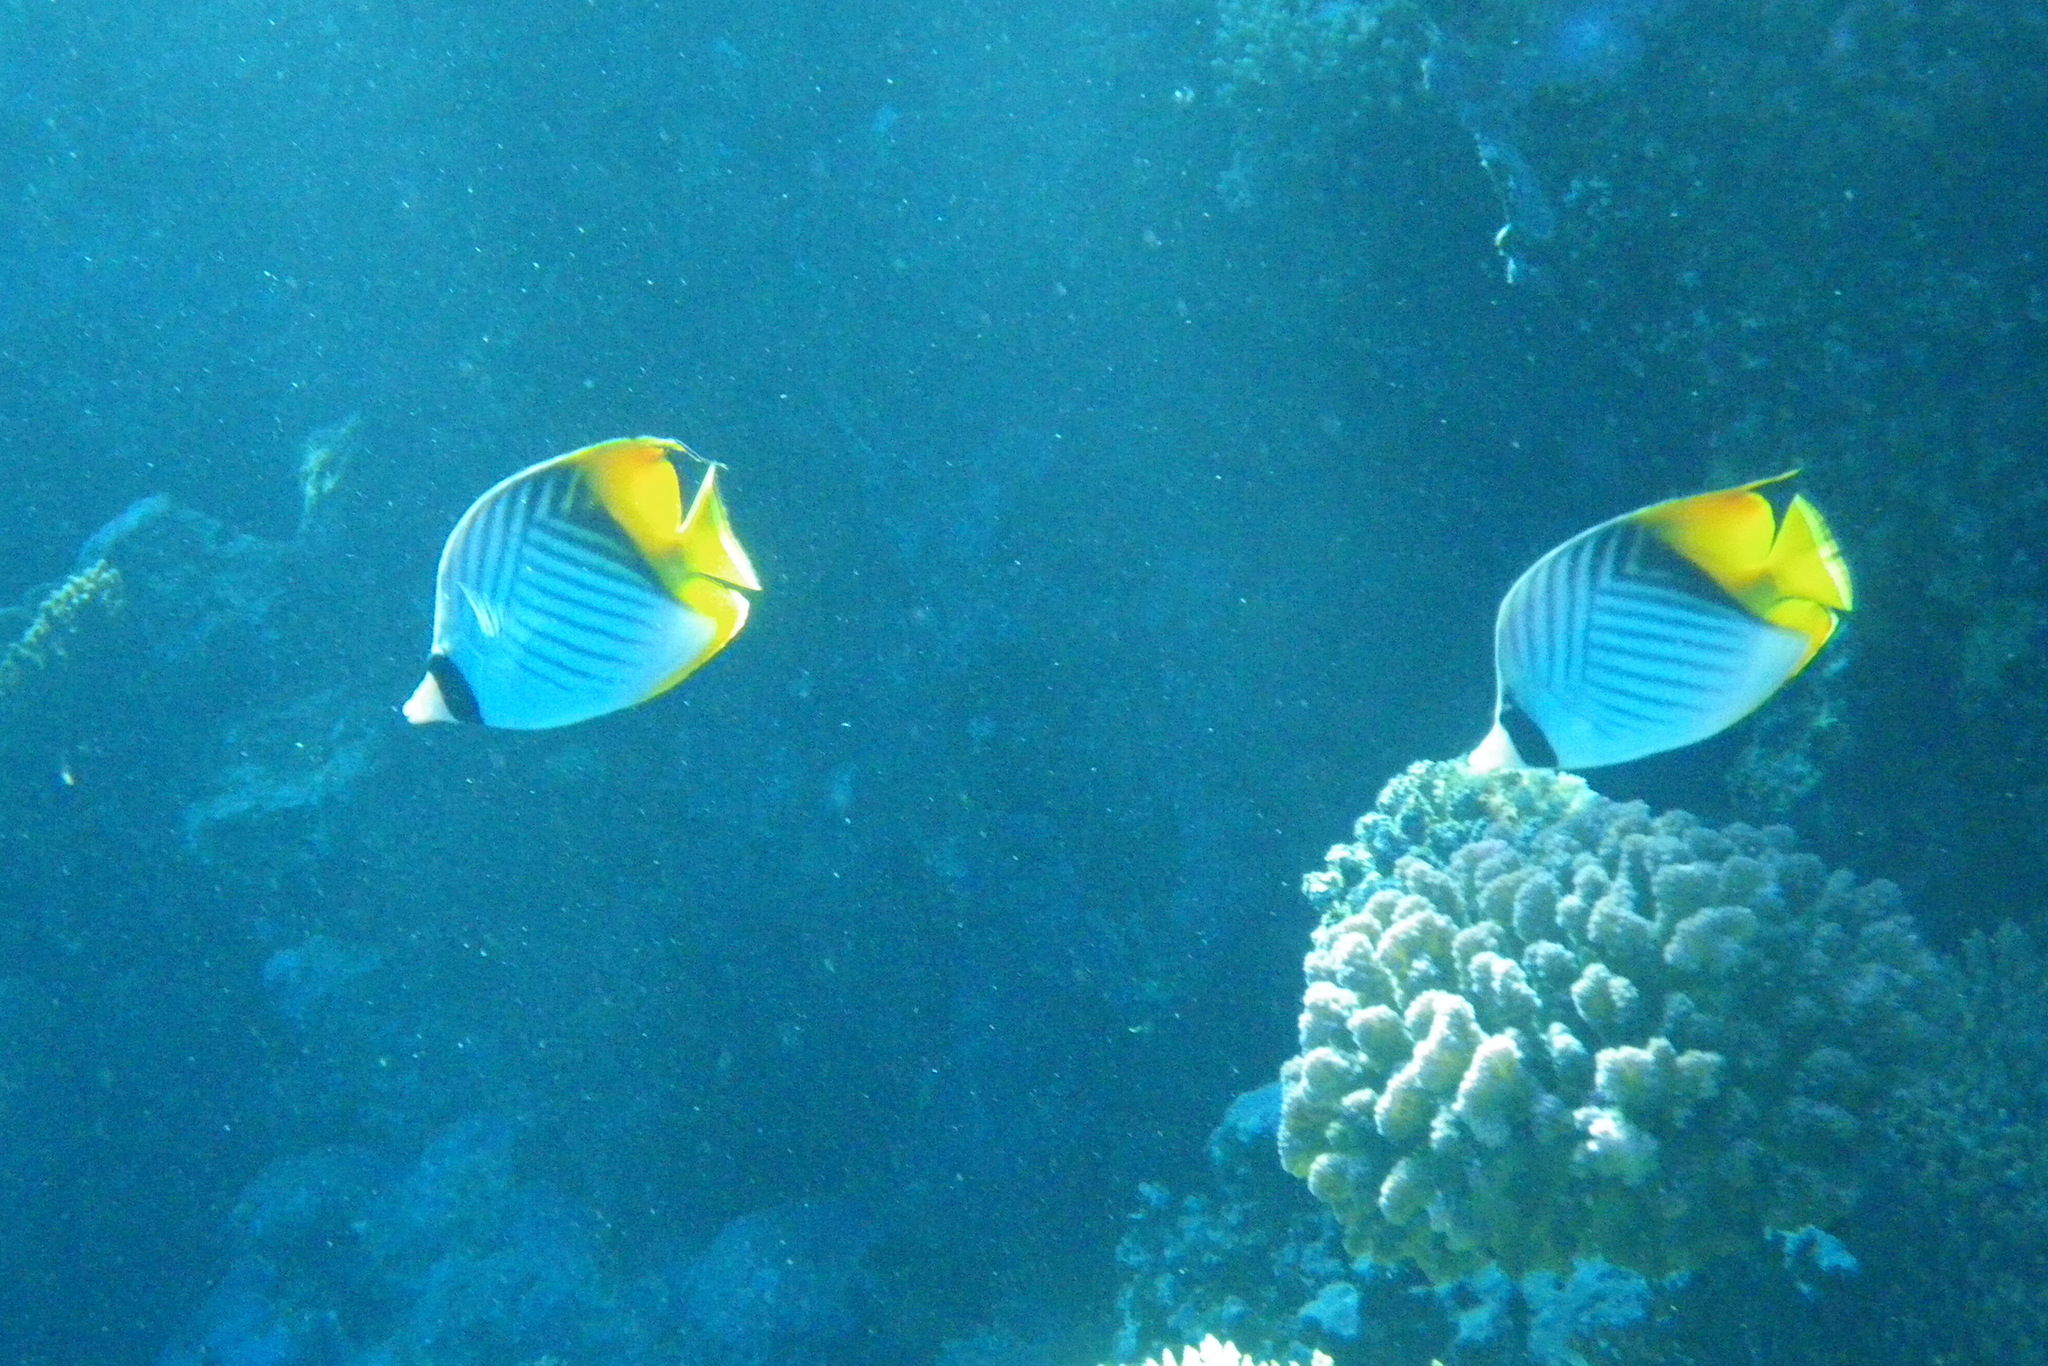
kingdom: Animalia
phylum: Chordata
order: Perciformes
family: Chaetodontidae
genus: Chaetodon
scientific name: Chaetodon auriga
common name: Threadfin butterflyfish
